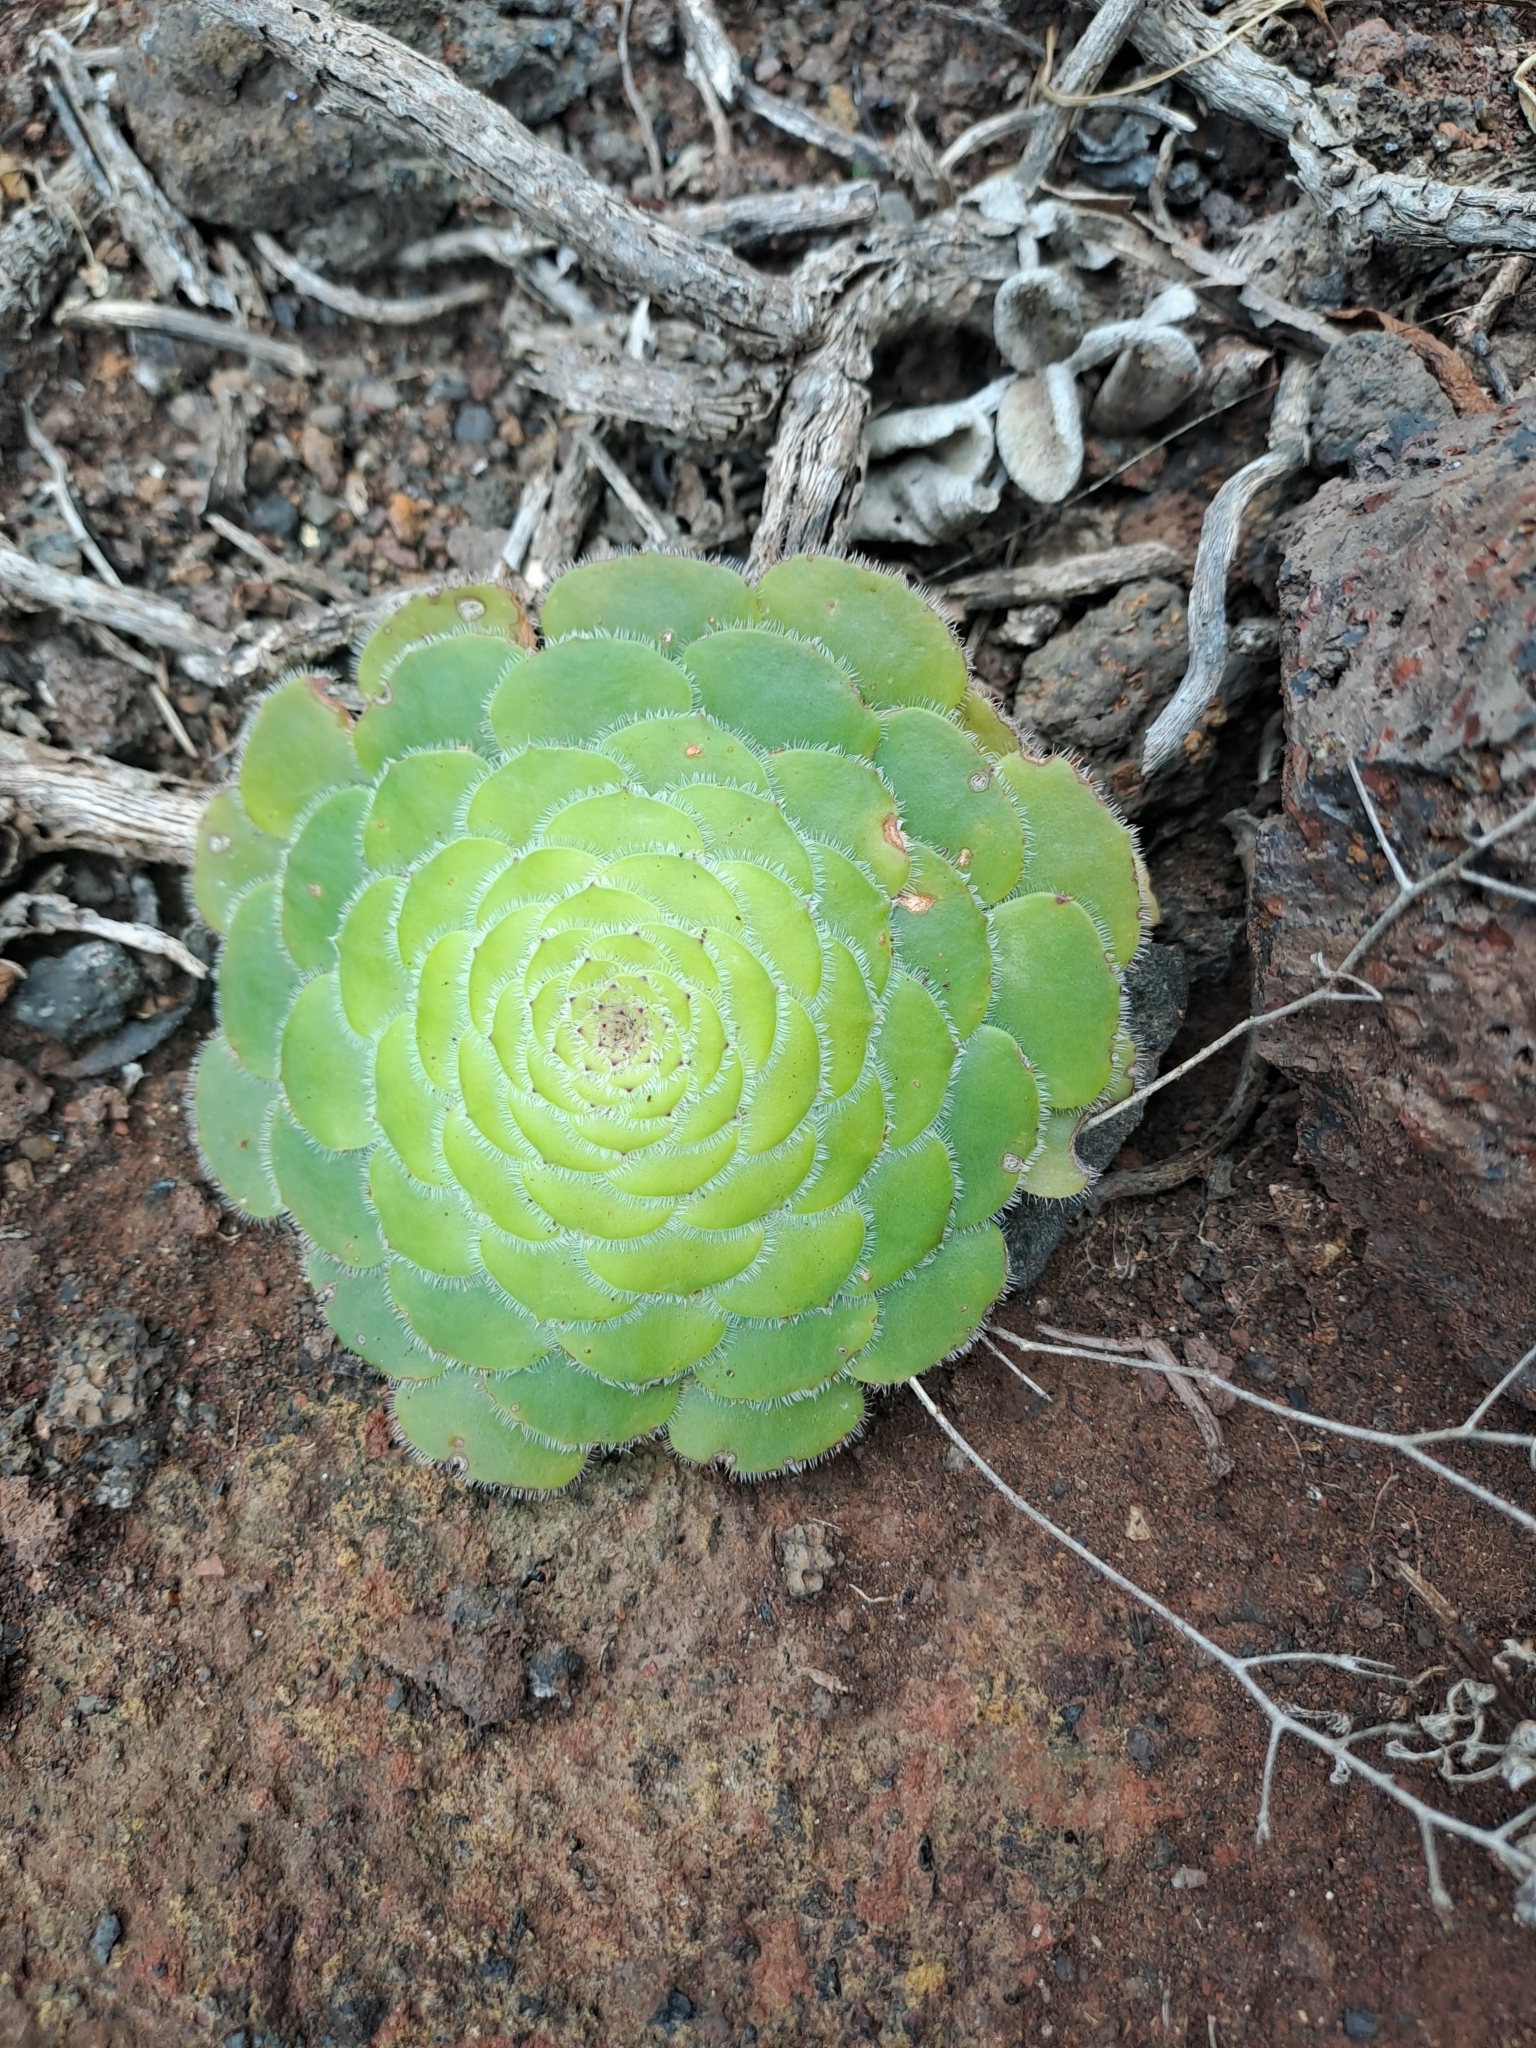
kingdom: Plantae
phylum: Tracheophyta
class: Magnoliopsida
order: Saxifragales
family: Crassulaceae
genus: Aeonium
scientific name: Aeonium tabulaeforme
